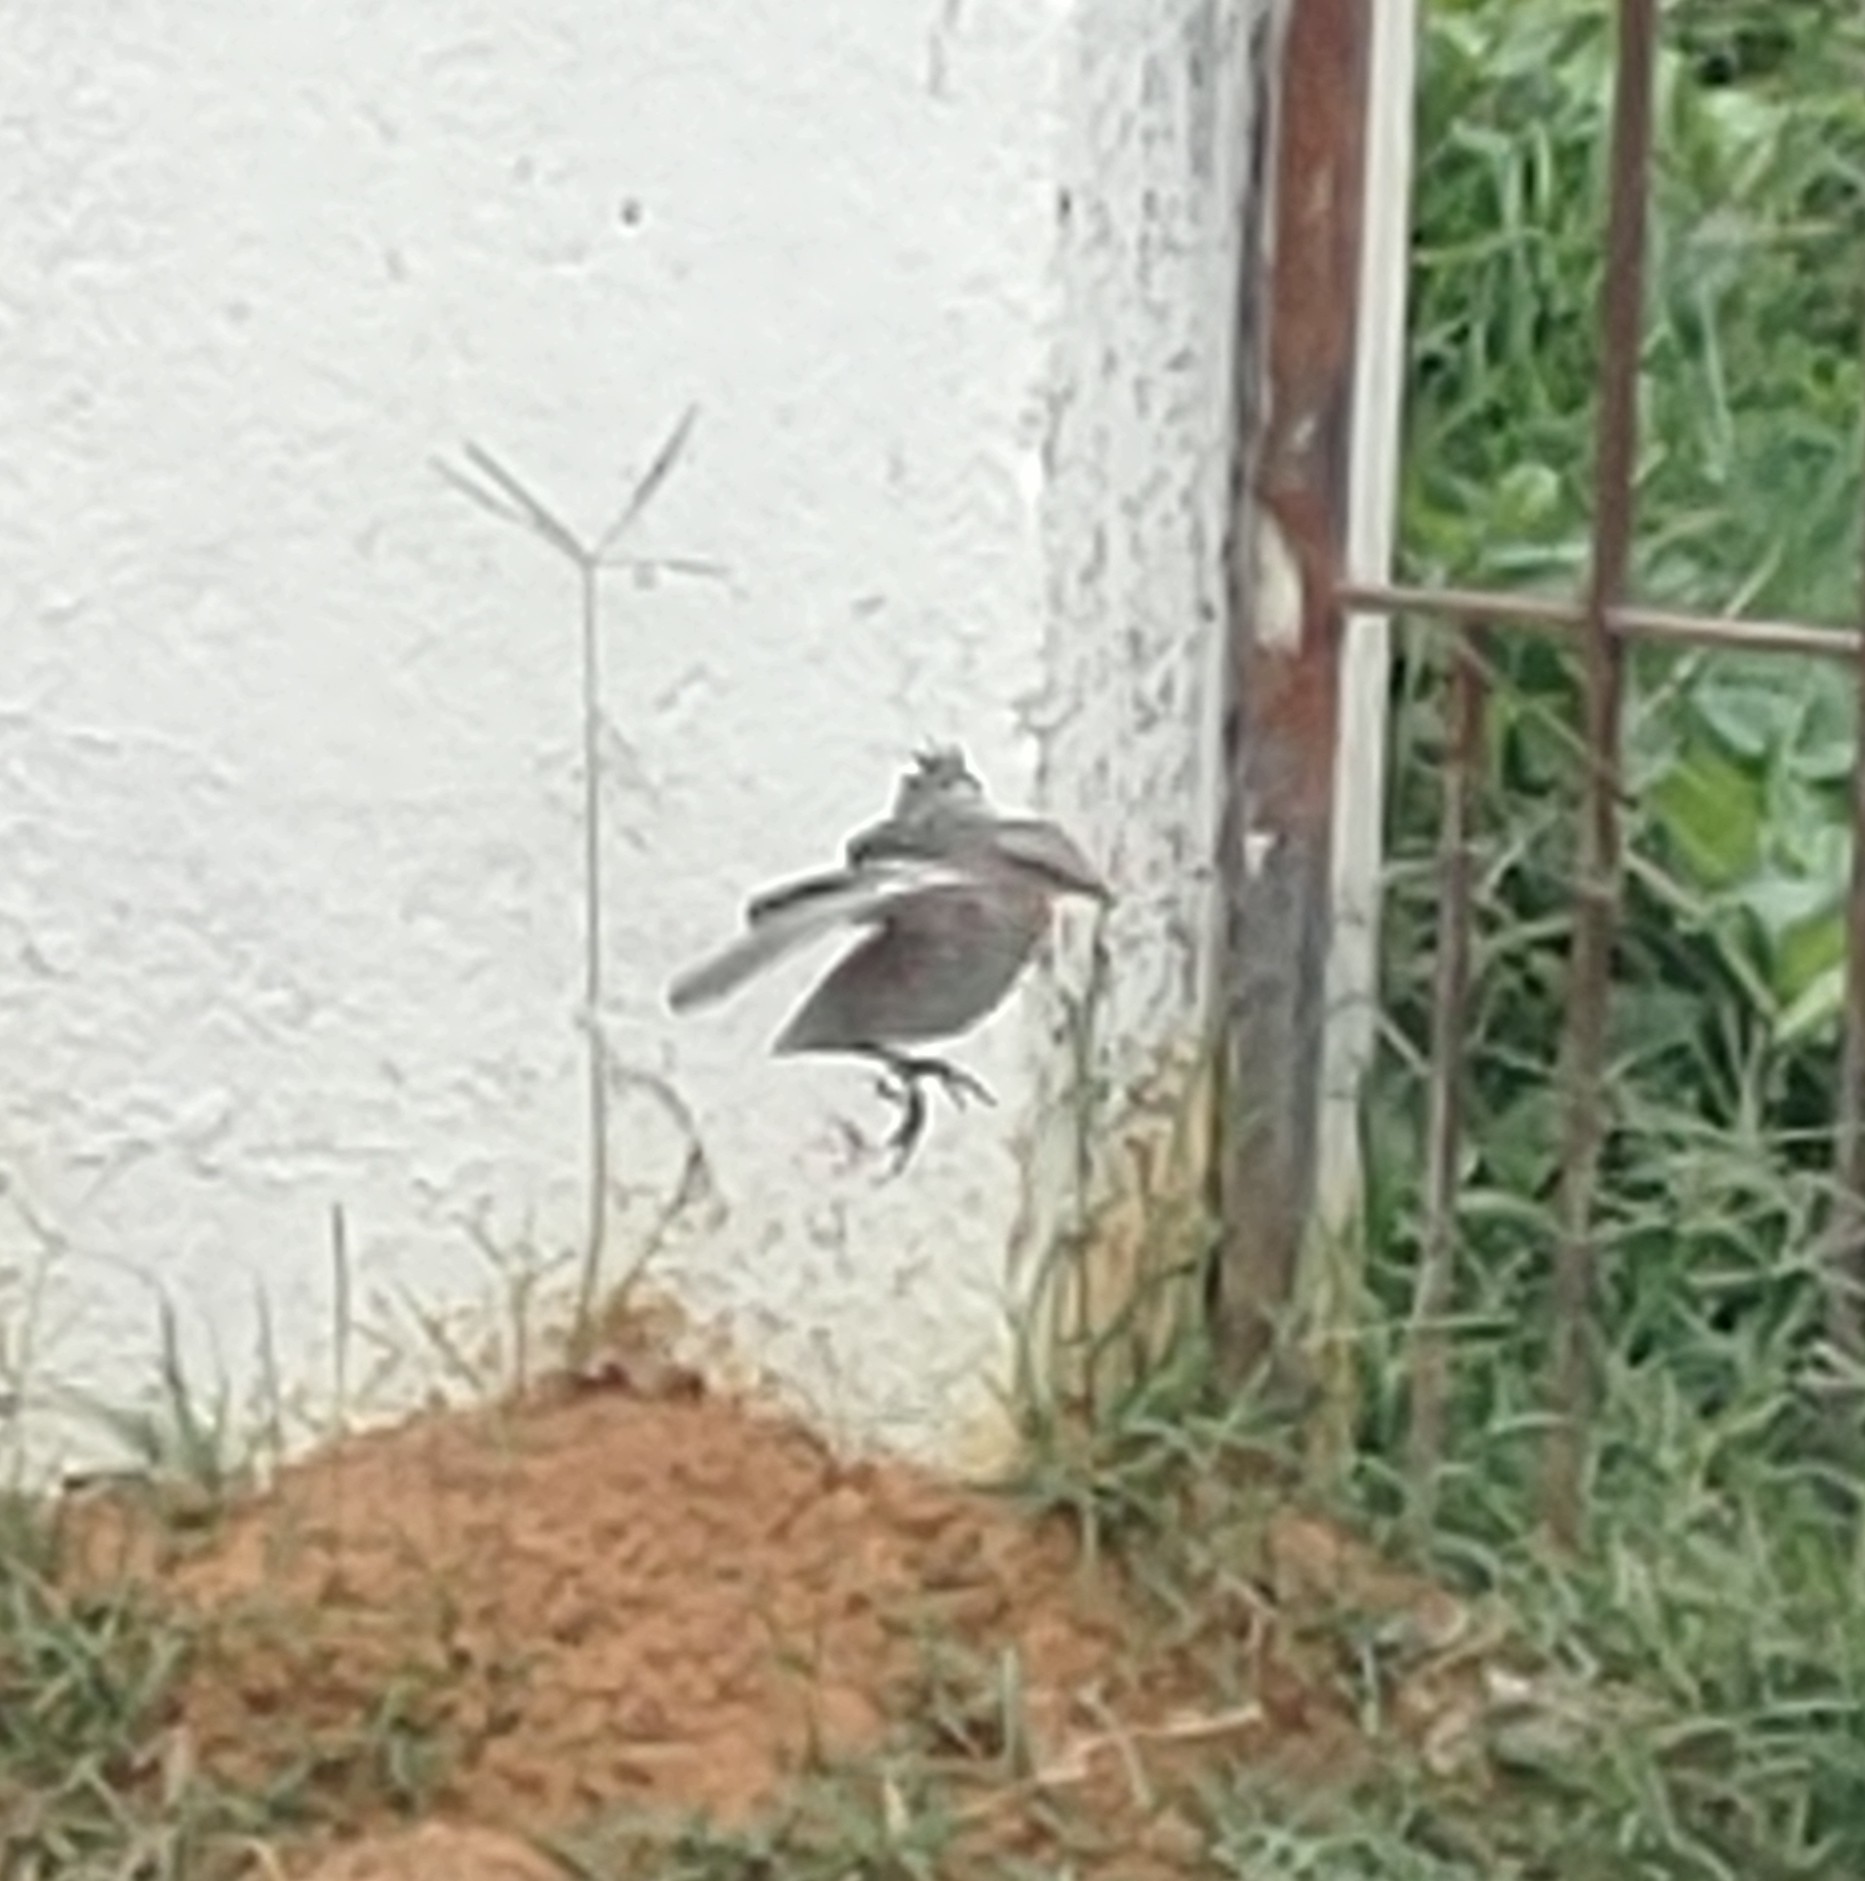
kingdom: Animalia
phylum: Chordata
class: Aves
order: Passeriformes
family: Mimidae
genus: Mimus
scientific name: Mimus saturninus
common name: Chalk-browed mockingbird
